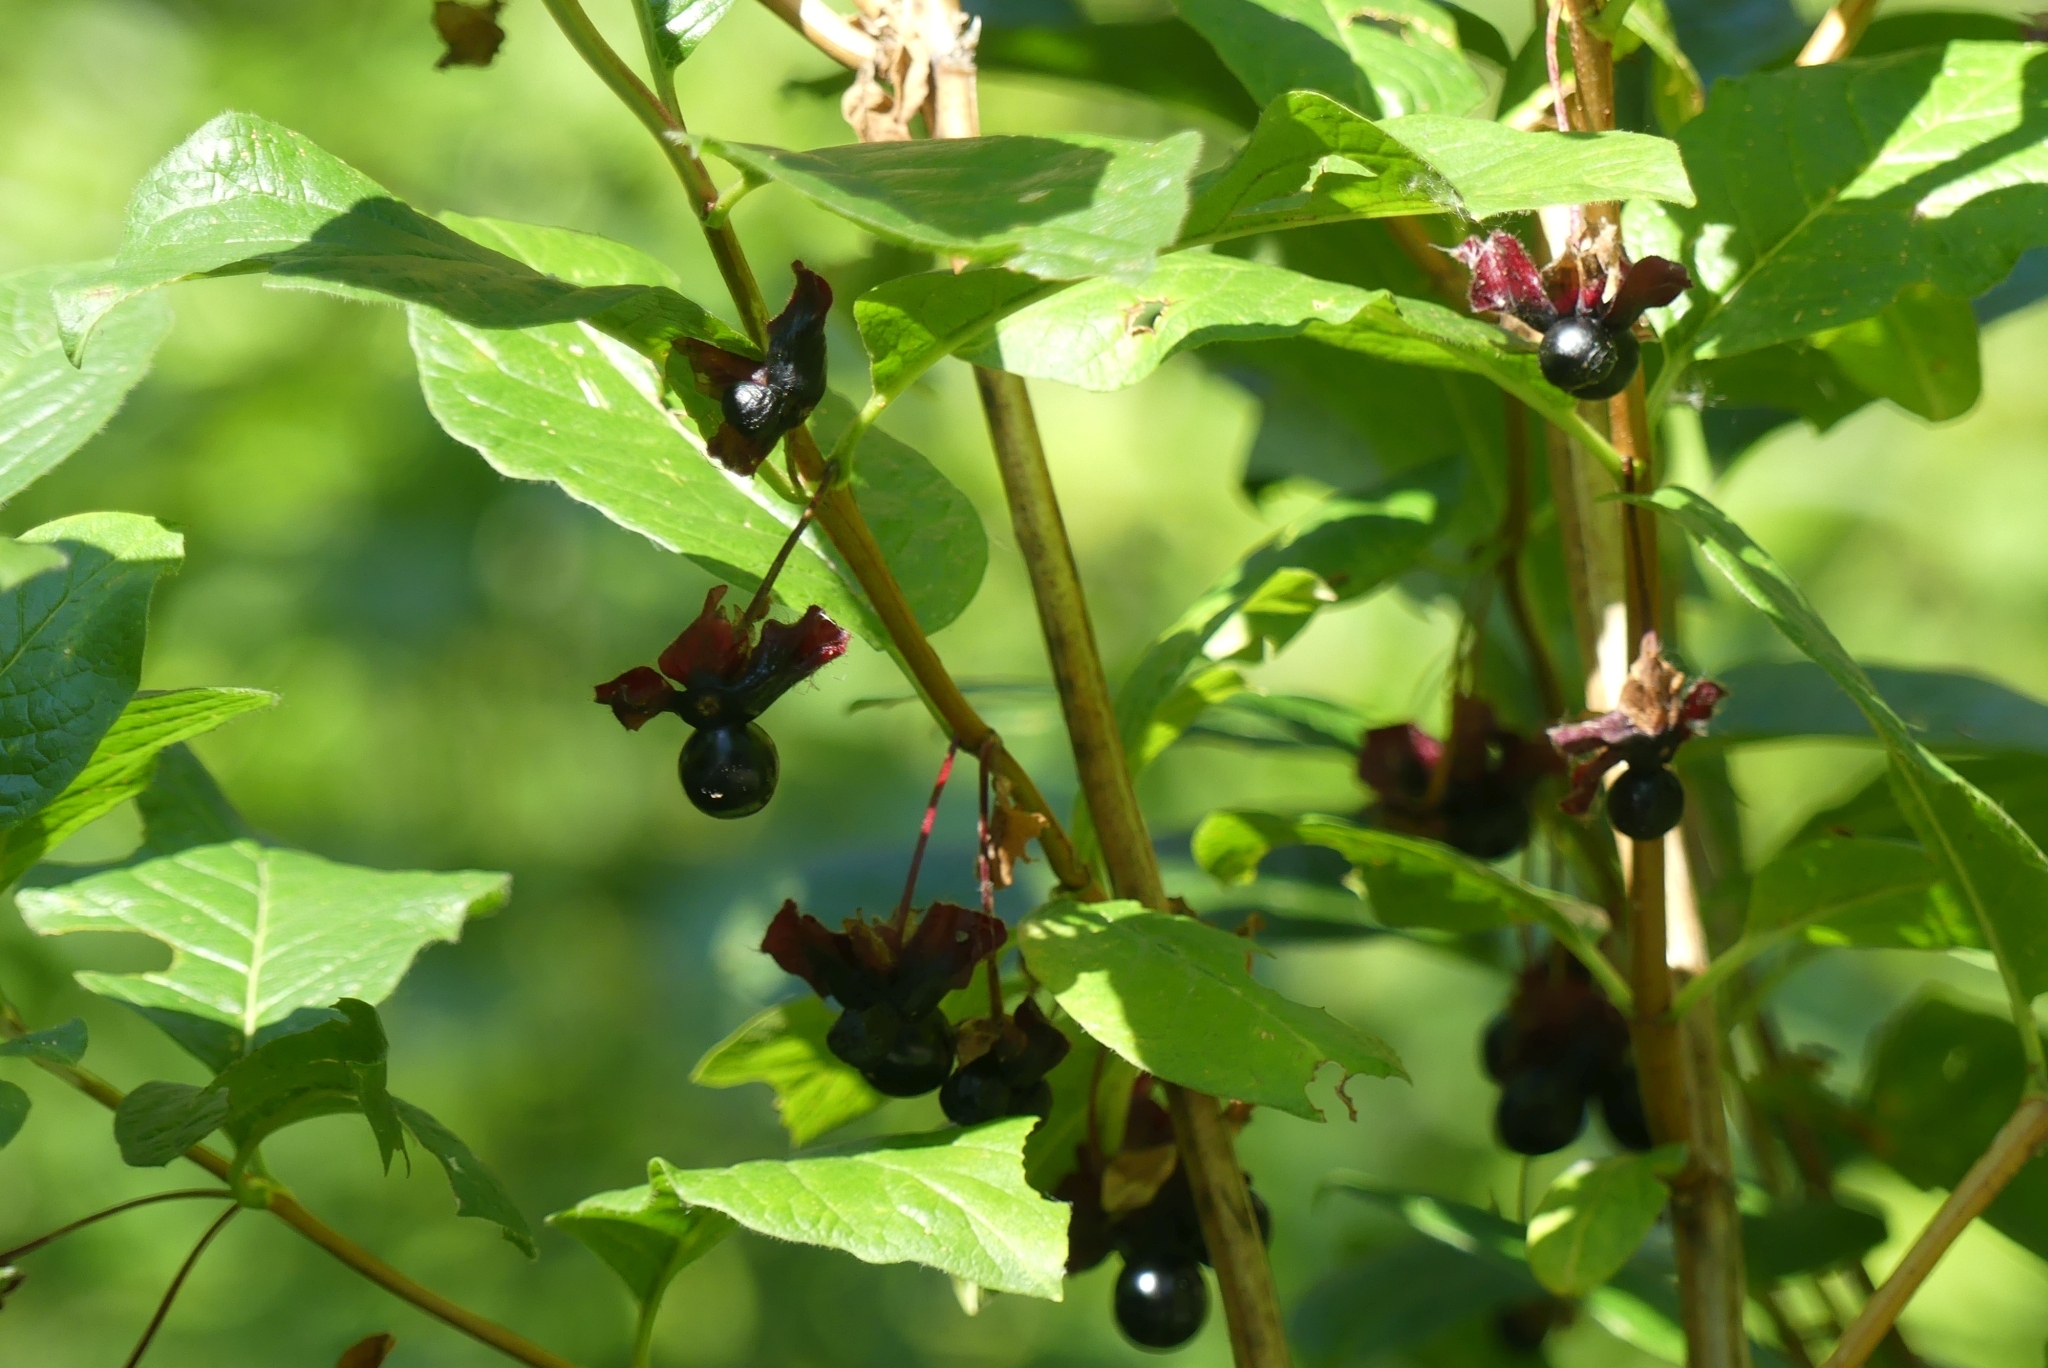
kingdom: Plantae
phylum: Tracheophyta
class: Magnoliopsida
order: Dipsacales
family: Caprifoliaceae
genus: Lonicera
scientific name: Lonicera involucrata
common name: Californian honeysuckle
